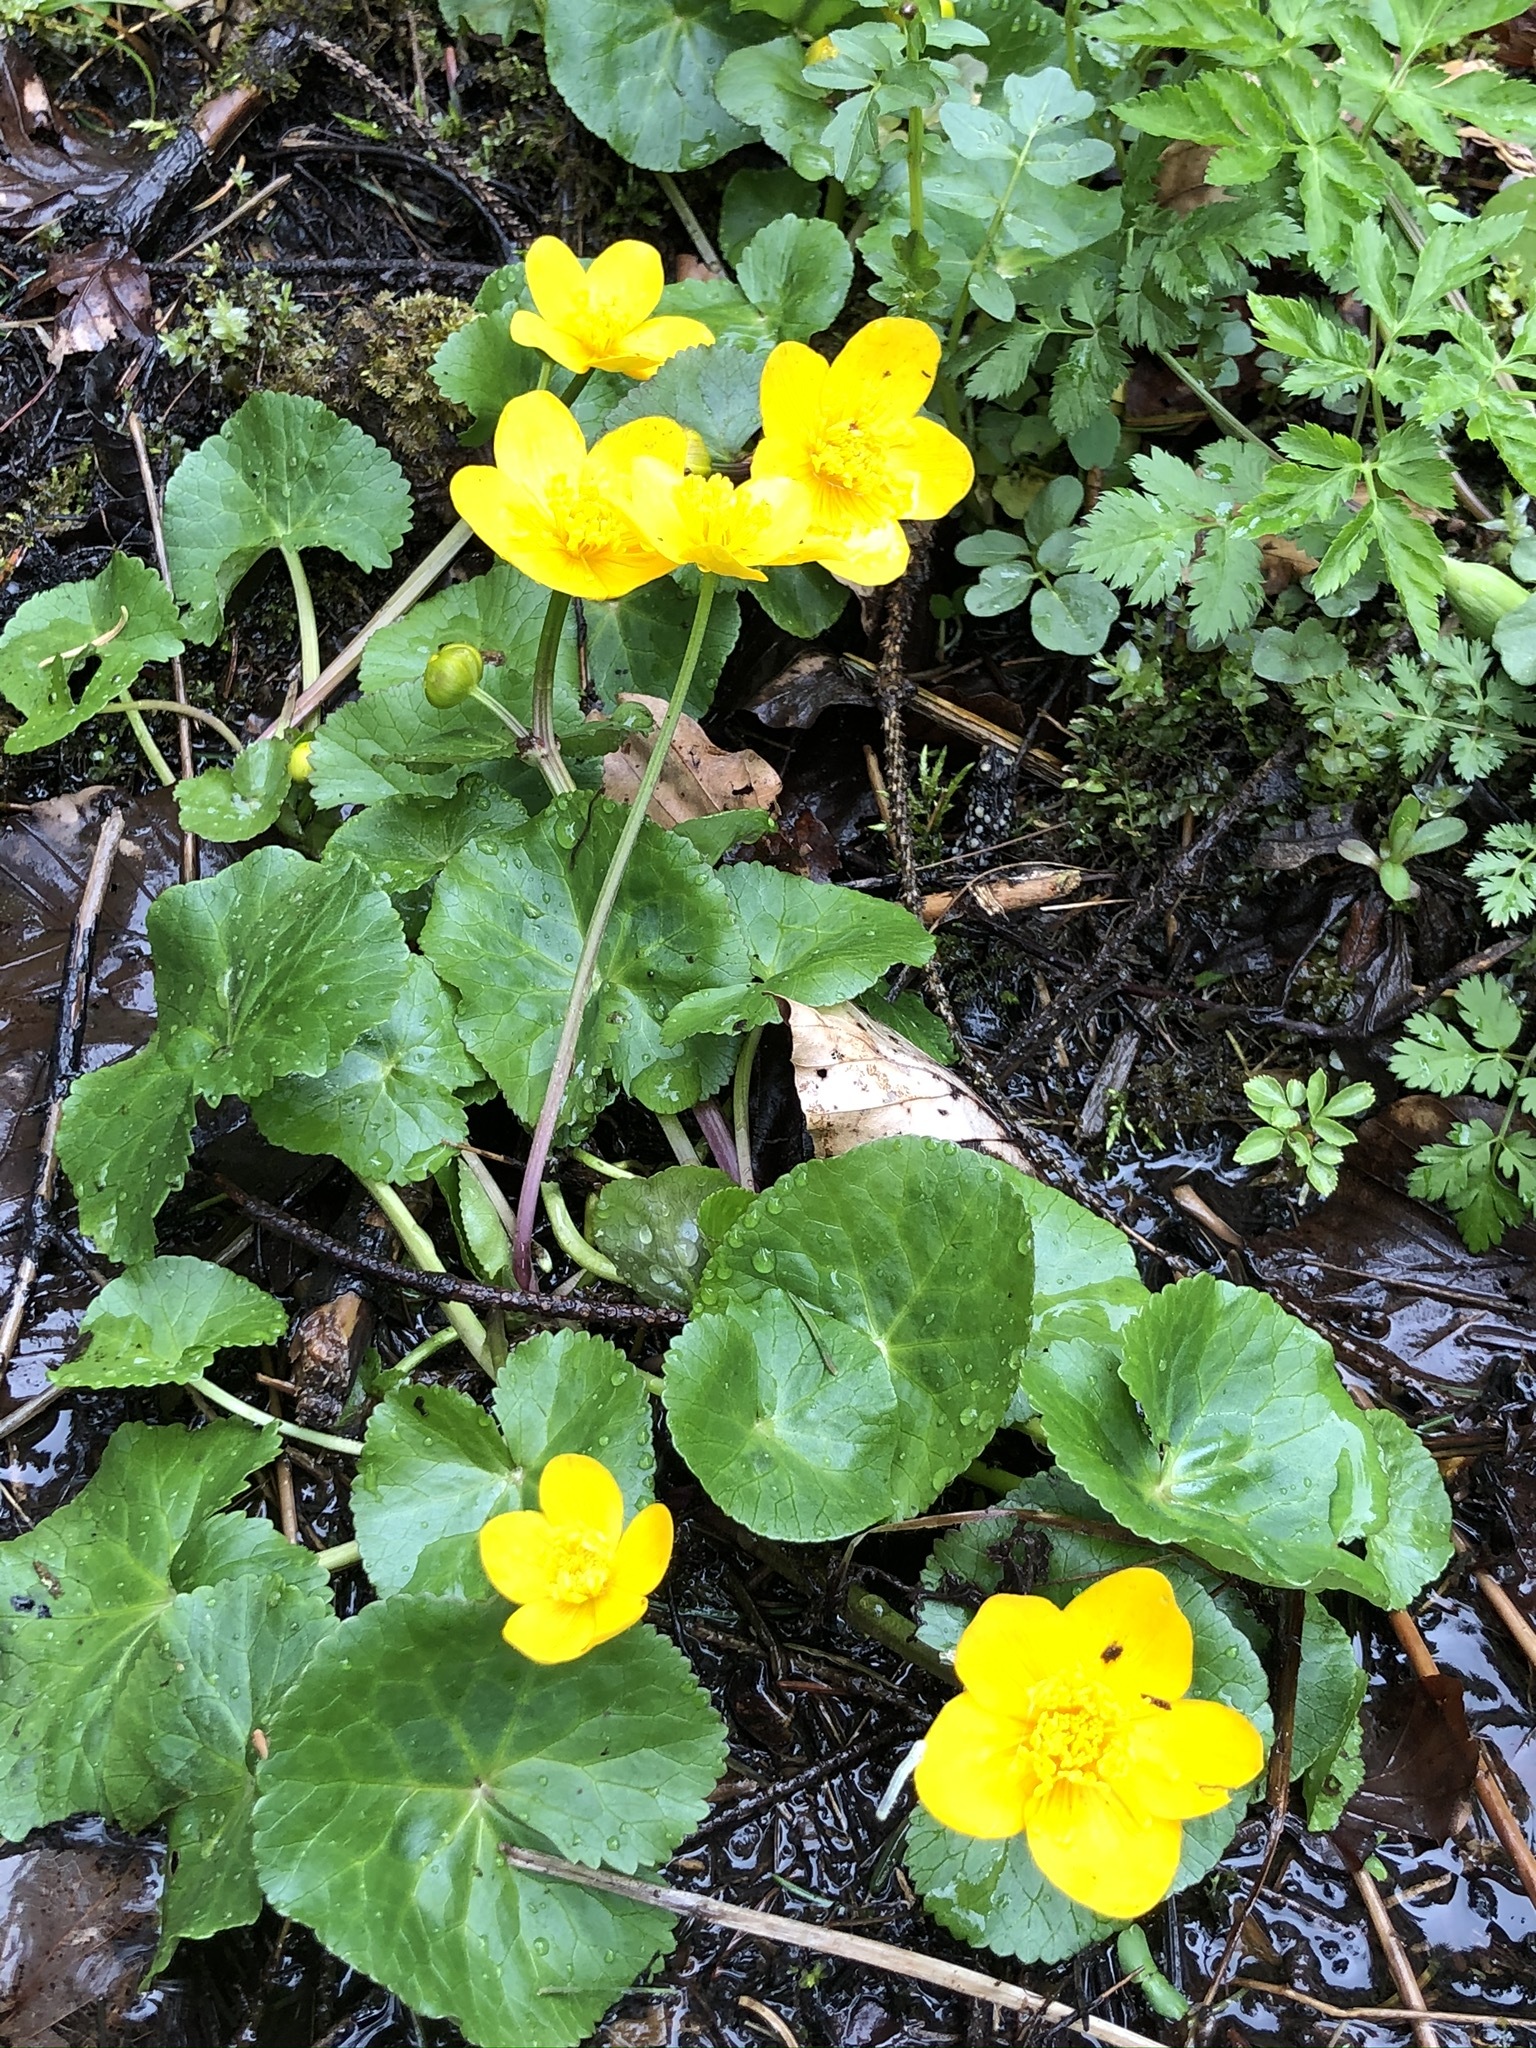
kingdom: Plantae
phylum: Tracheophyta
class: Magnoliopsida
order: Ranunculales
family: Ranunculaceae
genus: Caltha
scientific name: Caltha palustris
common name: Marsh marigold
